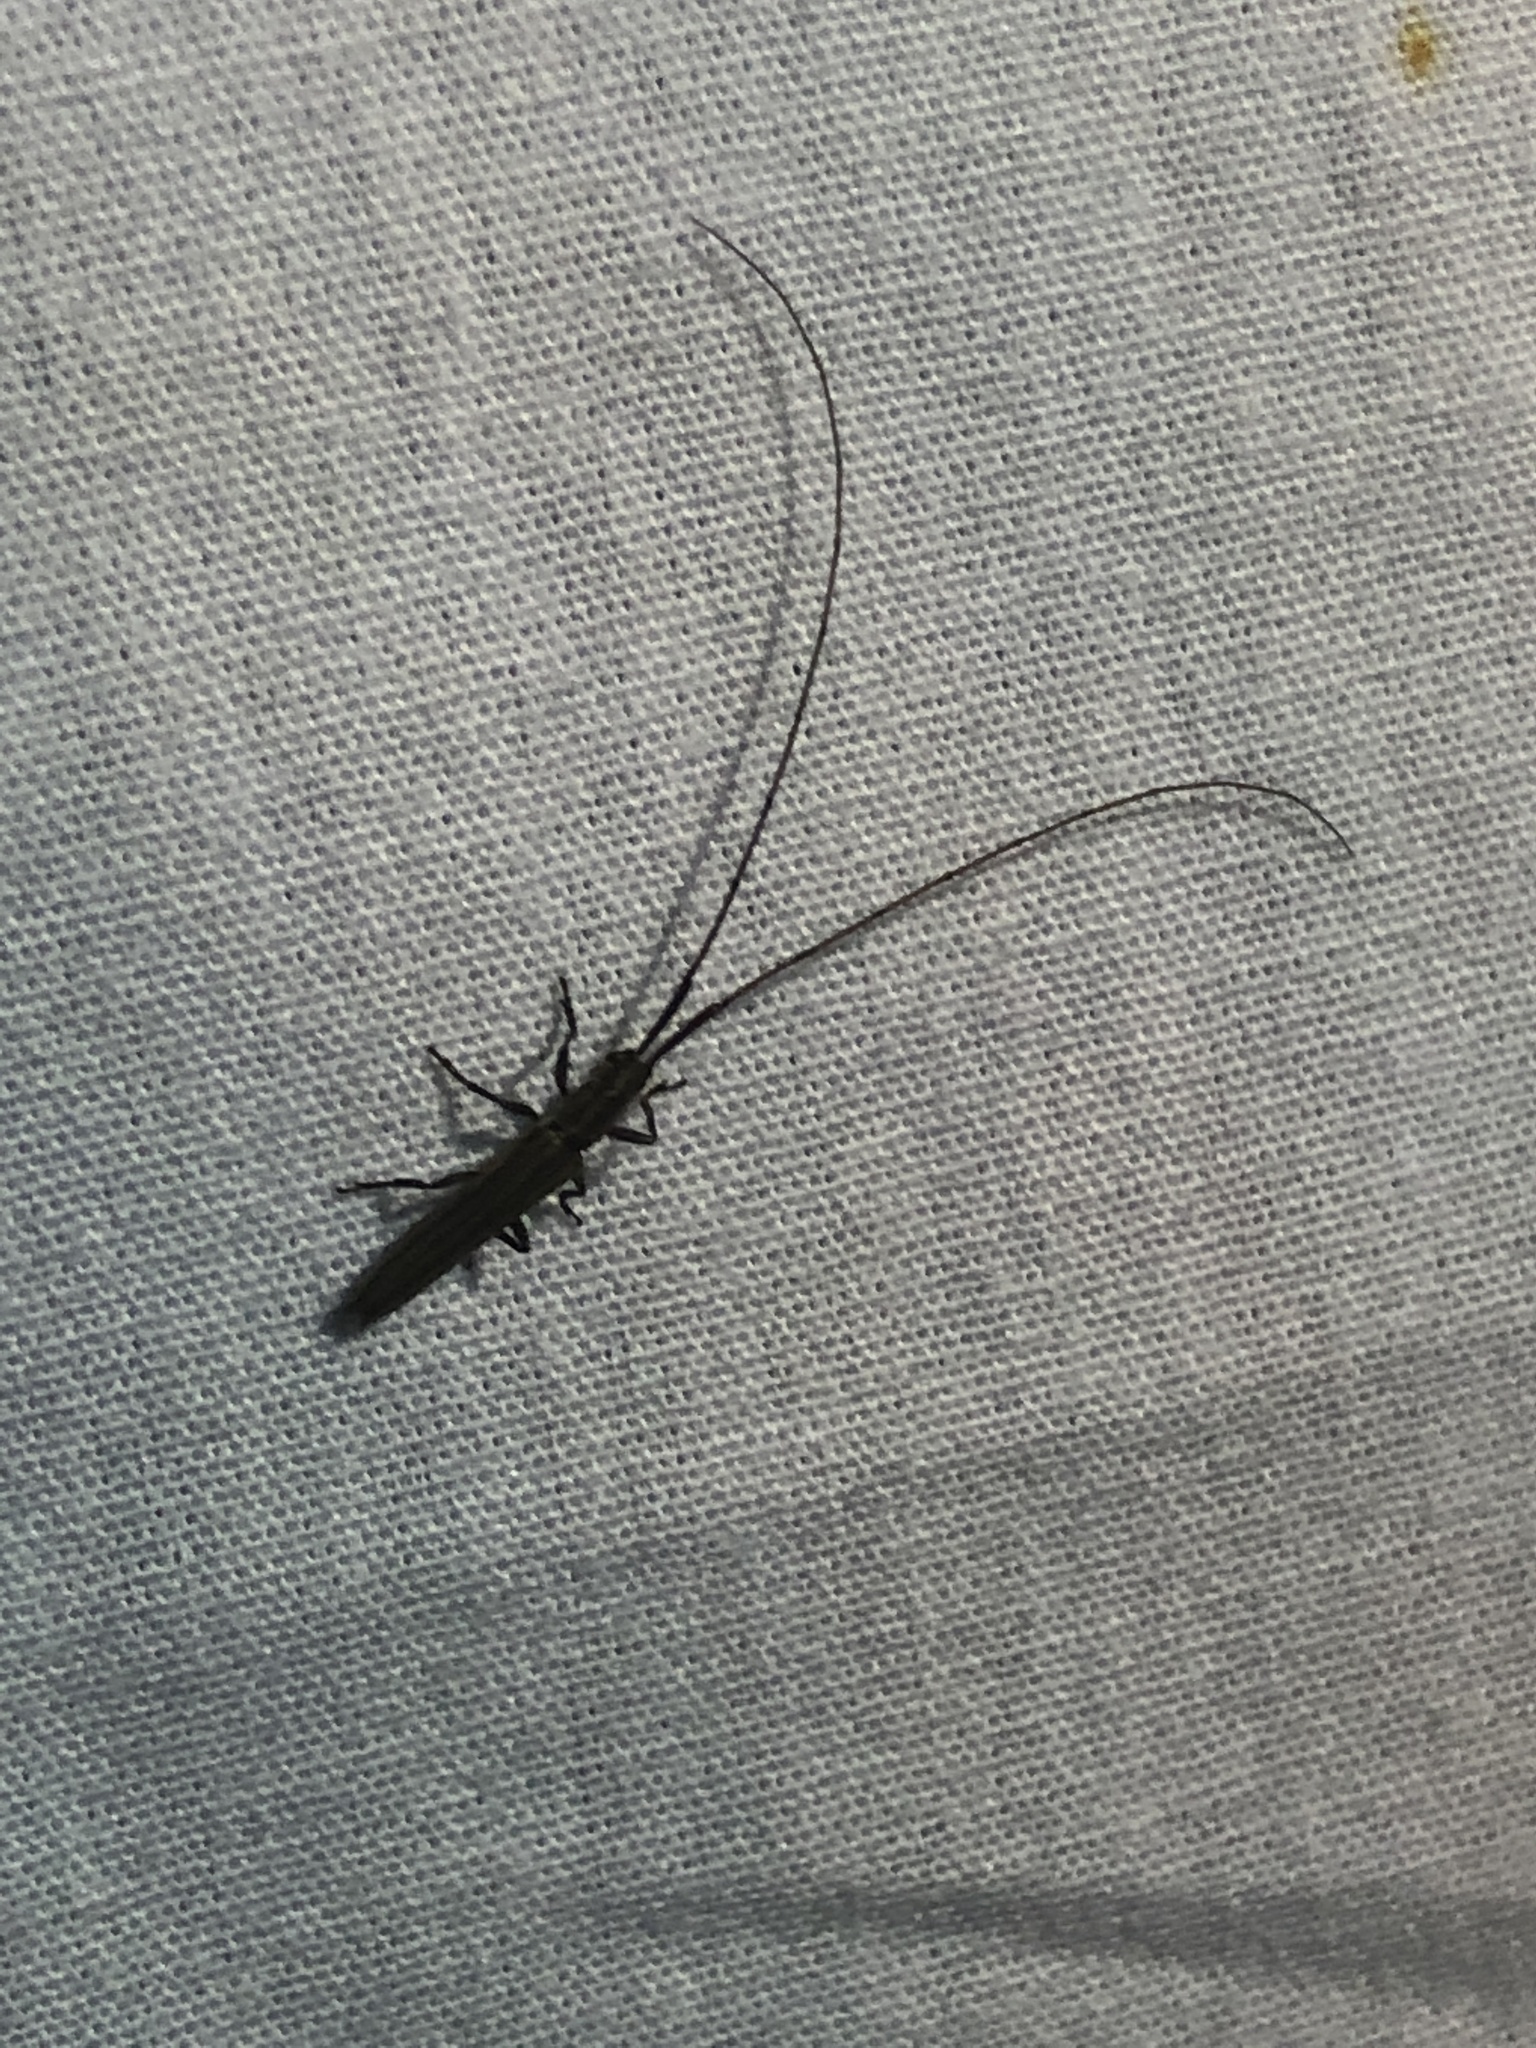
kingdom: Animalia
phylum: Arthropoda
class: Insecta
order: Coleoptera
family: Cerambycidae
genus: Hippopsis
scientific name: Hippopsis
